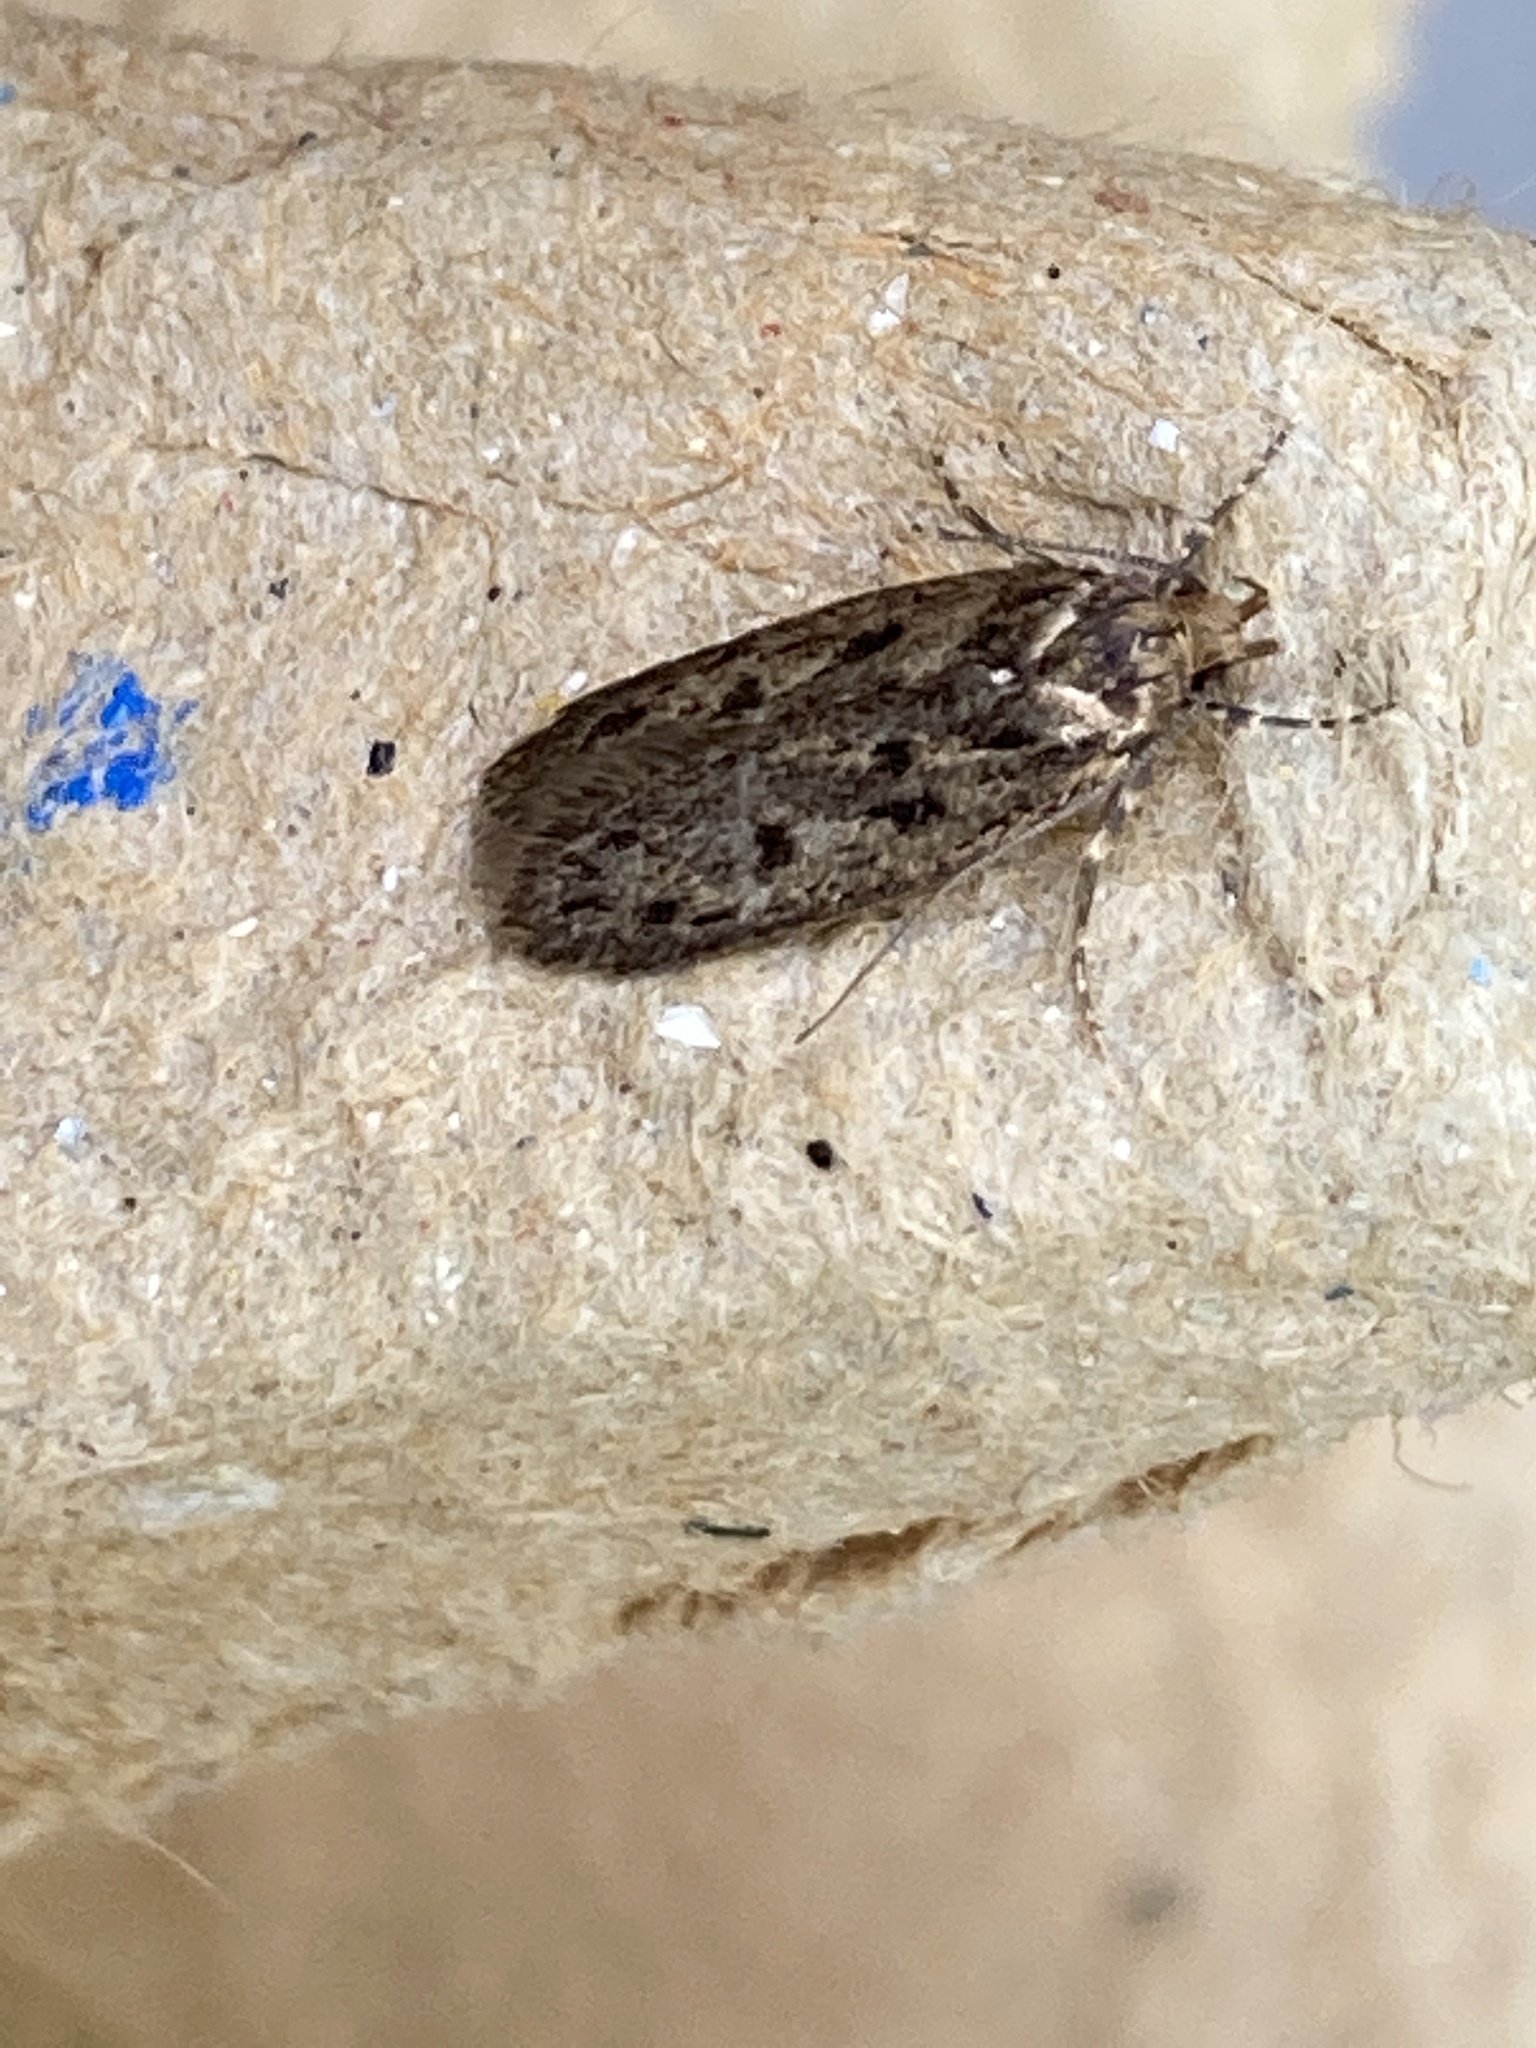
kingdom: Animalia
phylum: Arthropoda
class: Insecta
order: Lepidoptera
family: Oecophoridae
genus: Hofmannophila
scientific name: Hofmannophila pseudospretella
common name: Brown house moth
